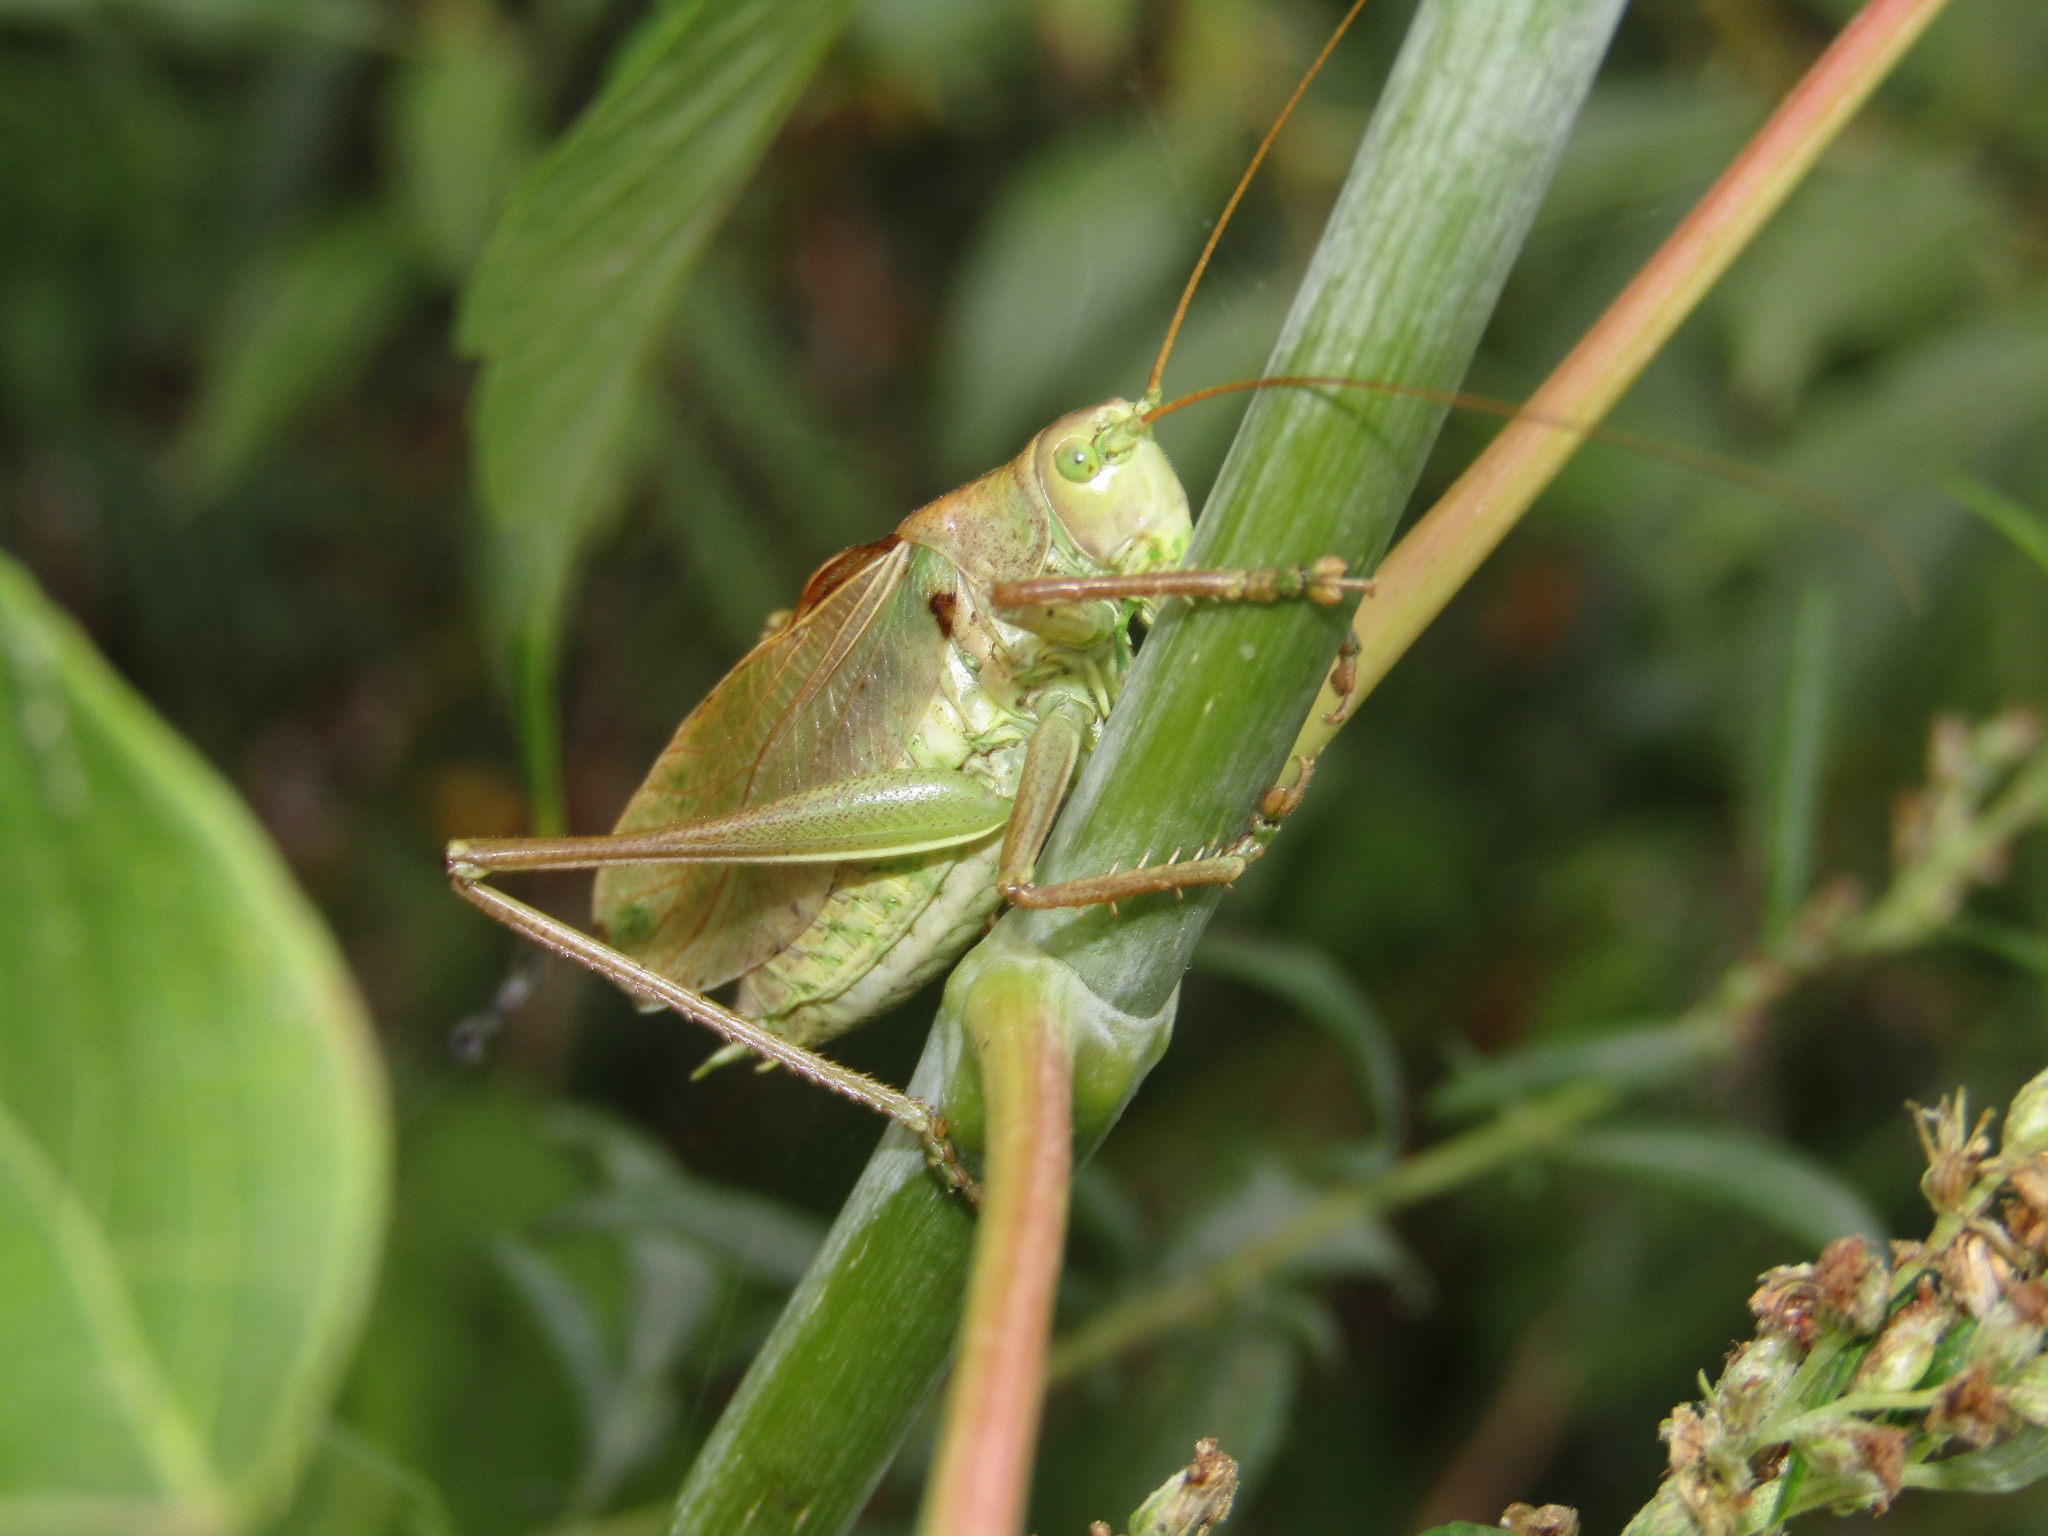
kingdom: Animalia
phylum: Arthropoda
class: Insecta
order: Orthoptera
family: Tettigoniidae
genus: Tettigonia
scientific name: Tettigonia cantans
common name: Upland green bush-cricket
